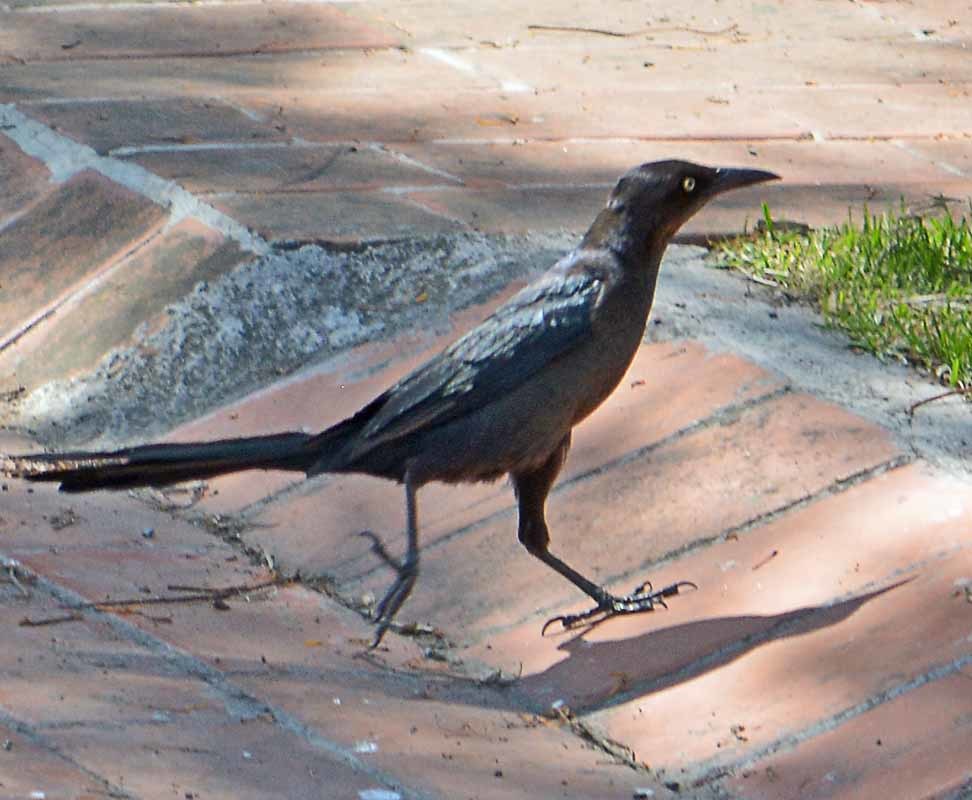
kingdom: Animalia
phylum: Chordata
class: Aves
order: Passeriformes
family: Icteridae
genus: Quiscalus
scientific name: Quiscalus mexicanus
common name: Great-tailed grackle
